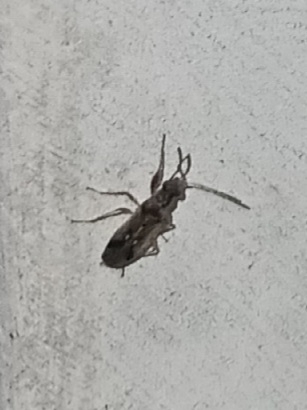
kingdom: Animalia
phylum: Arthropoda
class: Insecta
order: Hemiptera
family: Rhyparochromidae
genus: Pseudopachybrachius
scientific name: Pseudopachybrachius vinctus
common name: Dirt-colored seed bug
